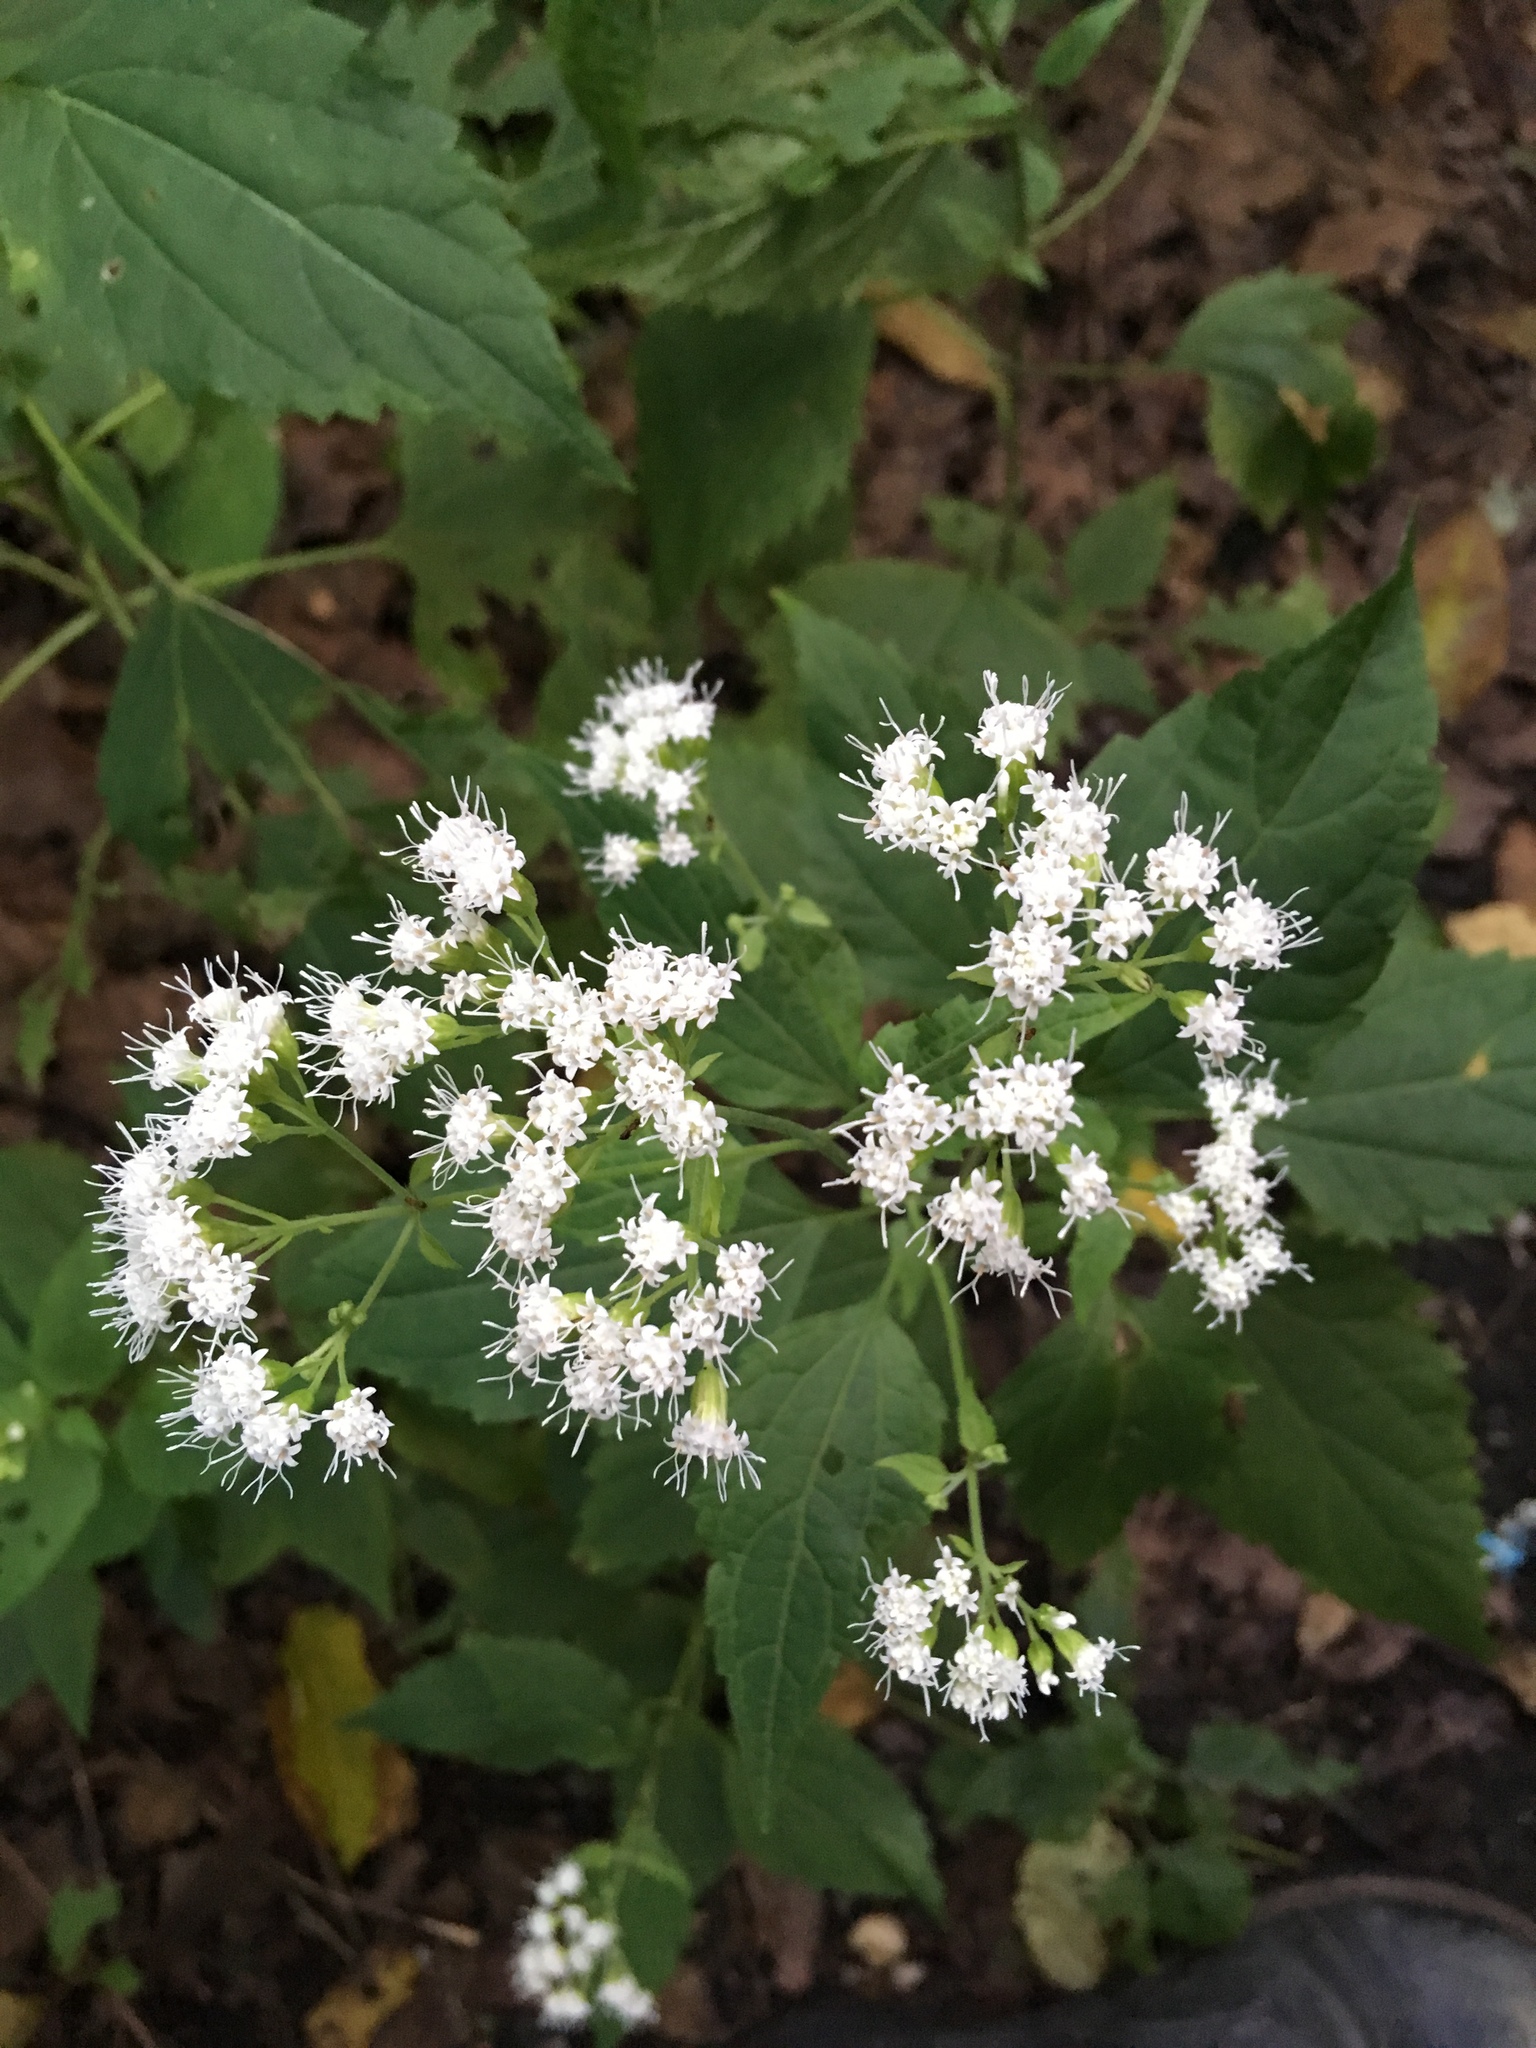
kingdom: Plantae
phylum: Tracheophyta
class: Magnoliopsida
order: Asterales
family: Asteraceae
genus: Ageratina
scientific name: Ageratina altissima
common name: White snakeroot
